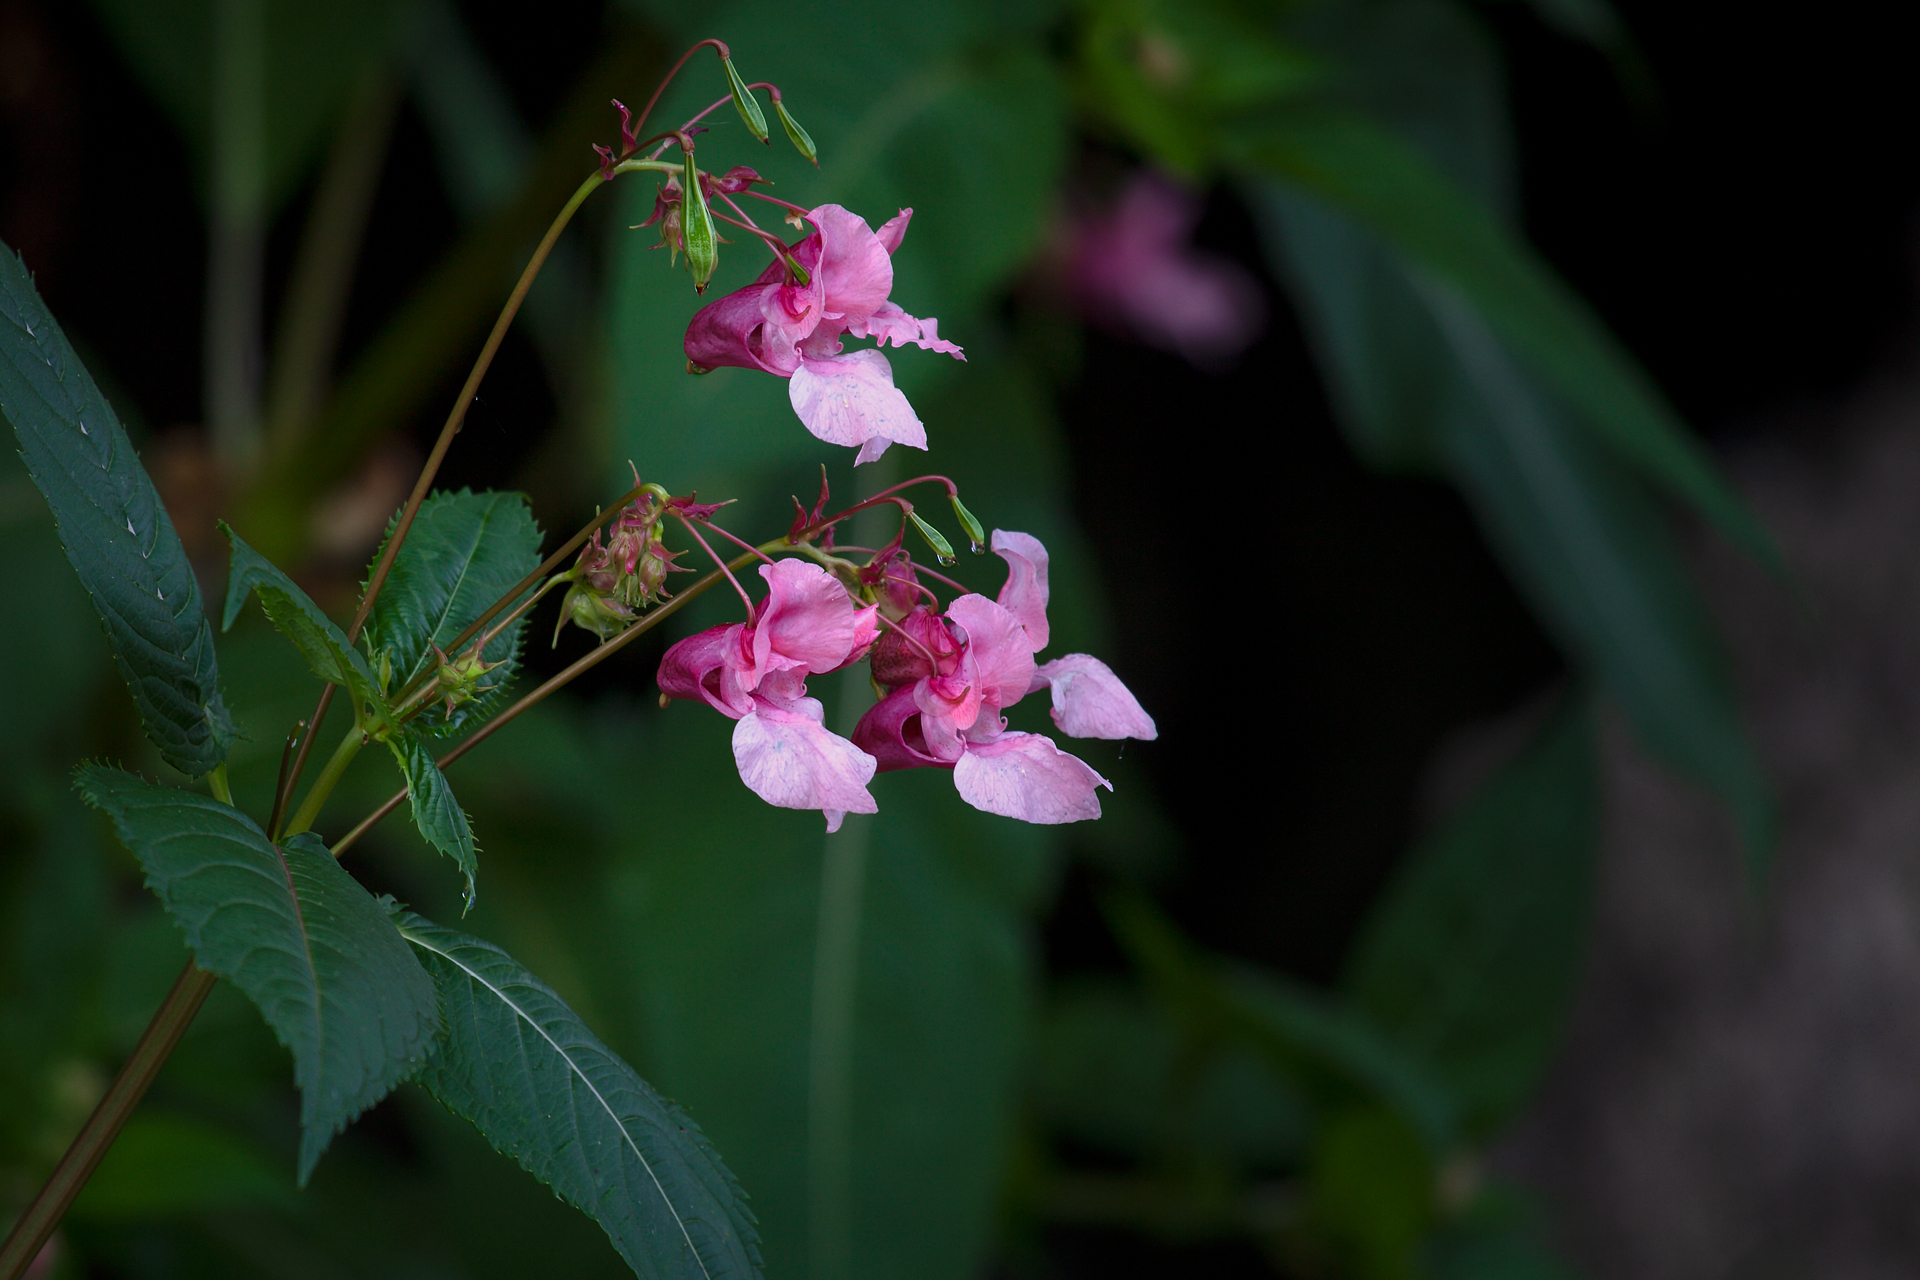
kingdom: Plantae
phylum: Tracheophyta
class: Magnoliopsida
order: Ericales
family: Balsaminaceae
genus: Impatiens
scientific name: Impatiens glandulifera
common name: Himalayan balsam
